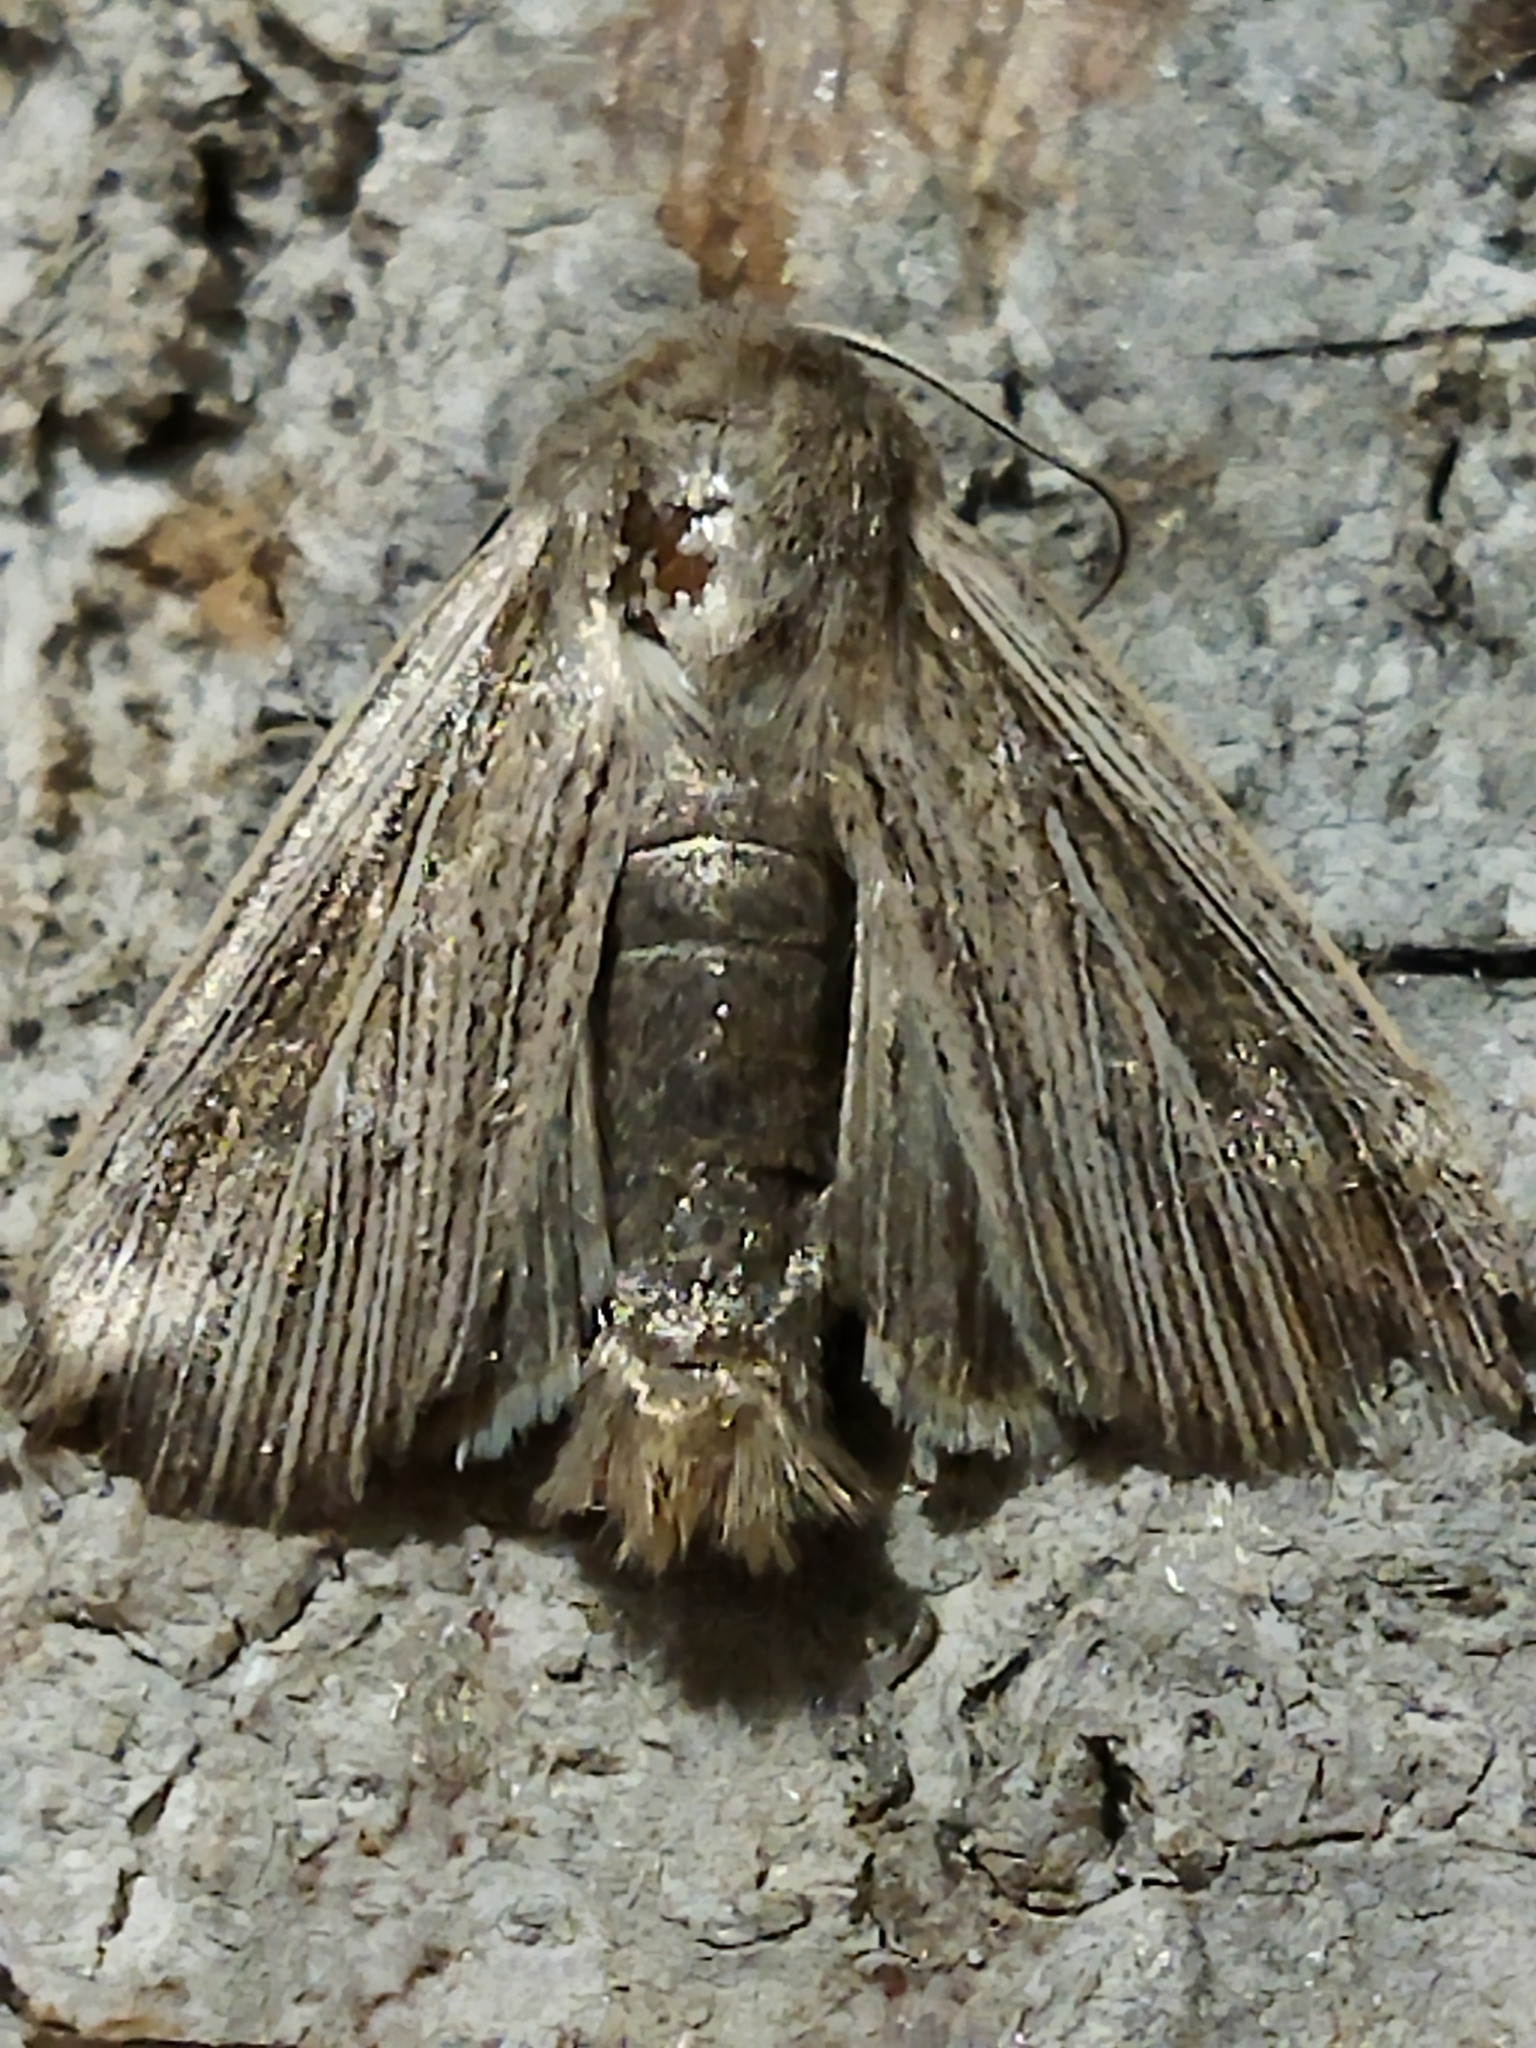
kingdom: Animalia
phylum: Arthropoda
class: Insecta
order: Lepidoptera
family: Noctuidae
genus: Mythimna
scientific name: Mythimna riparia
